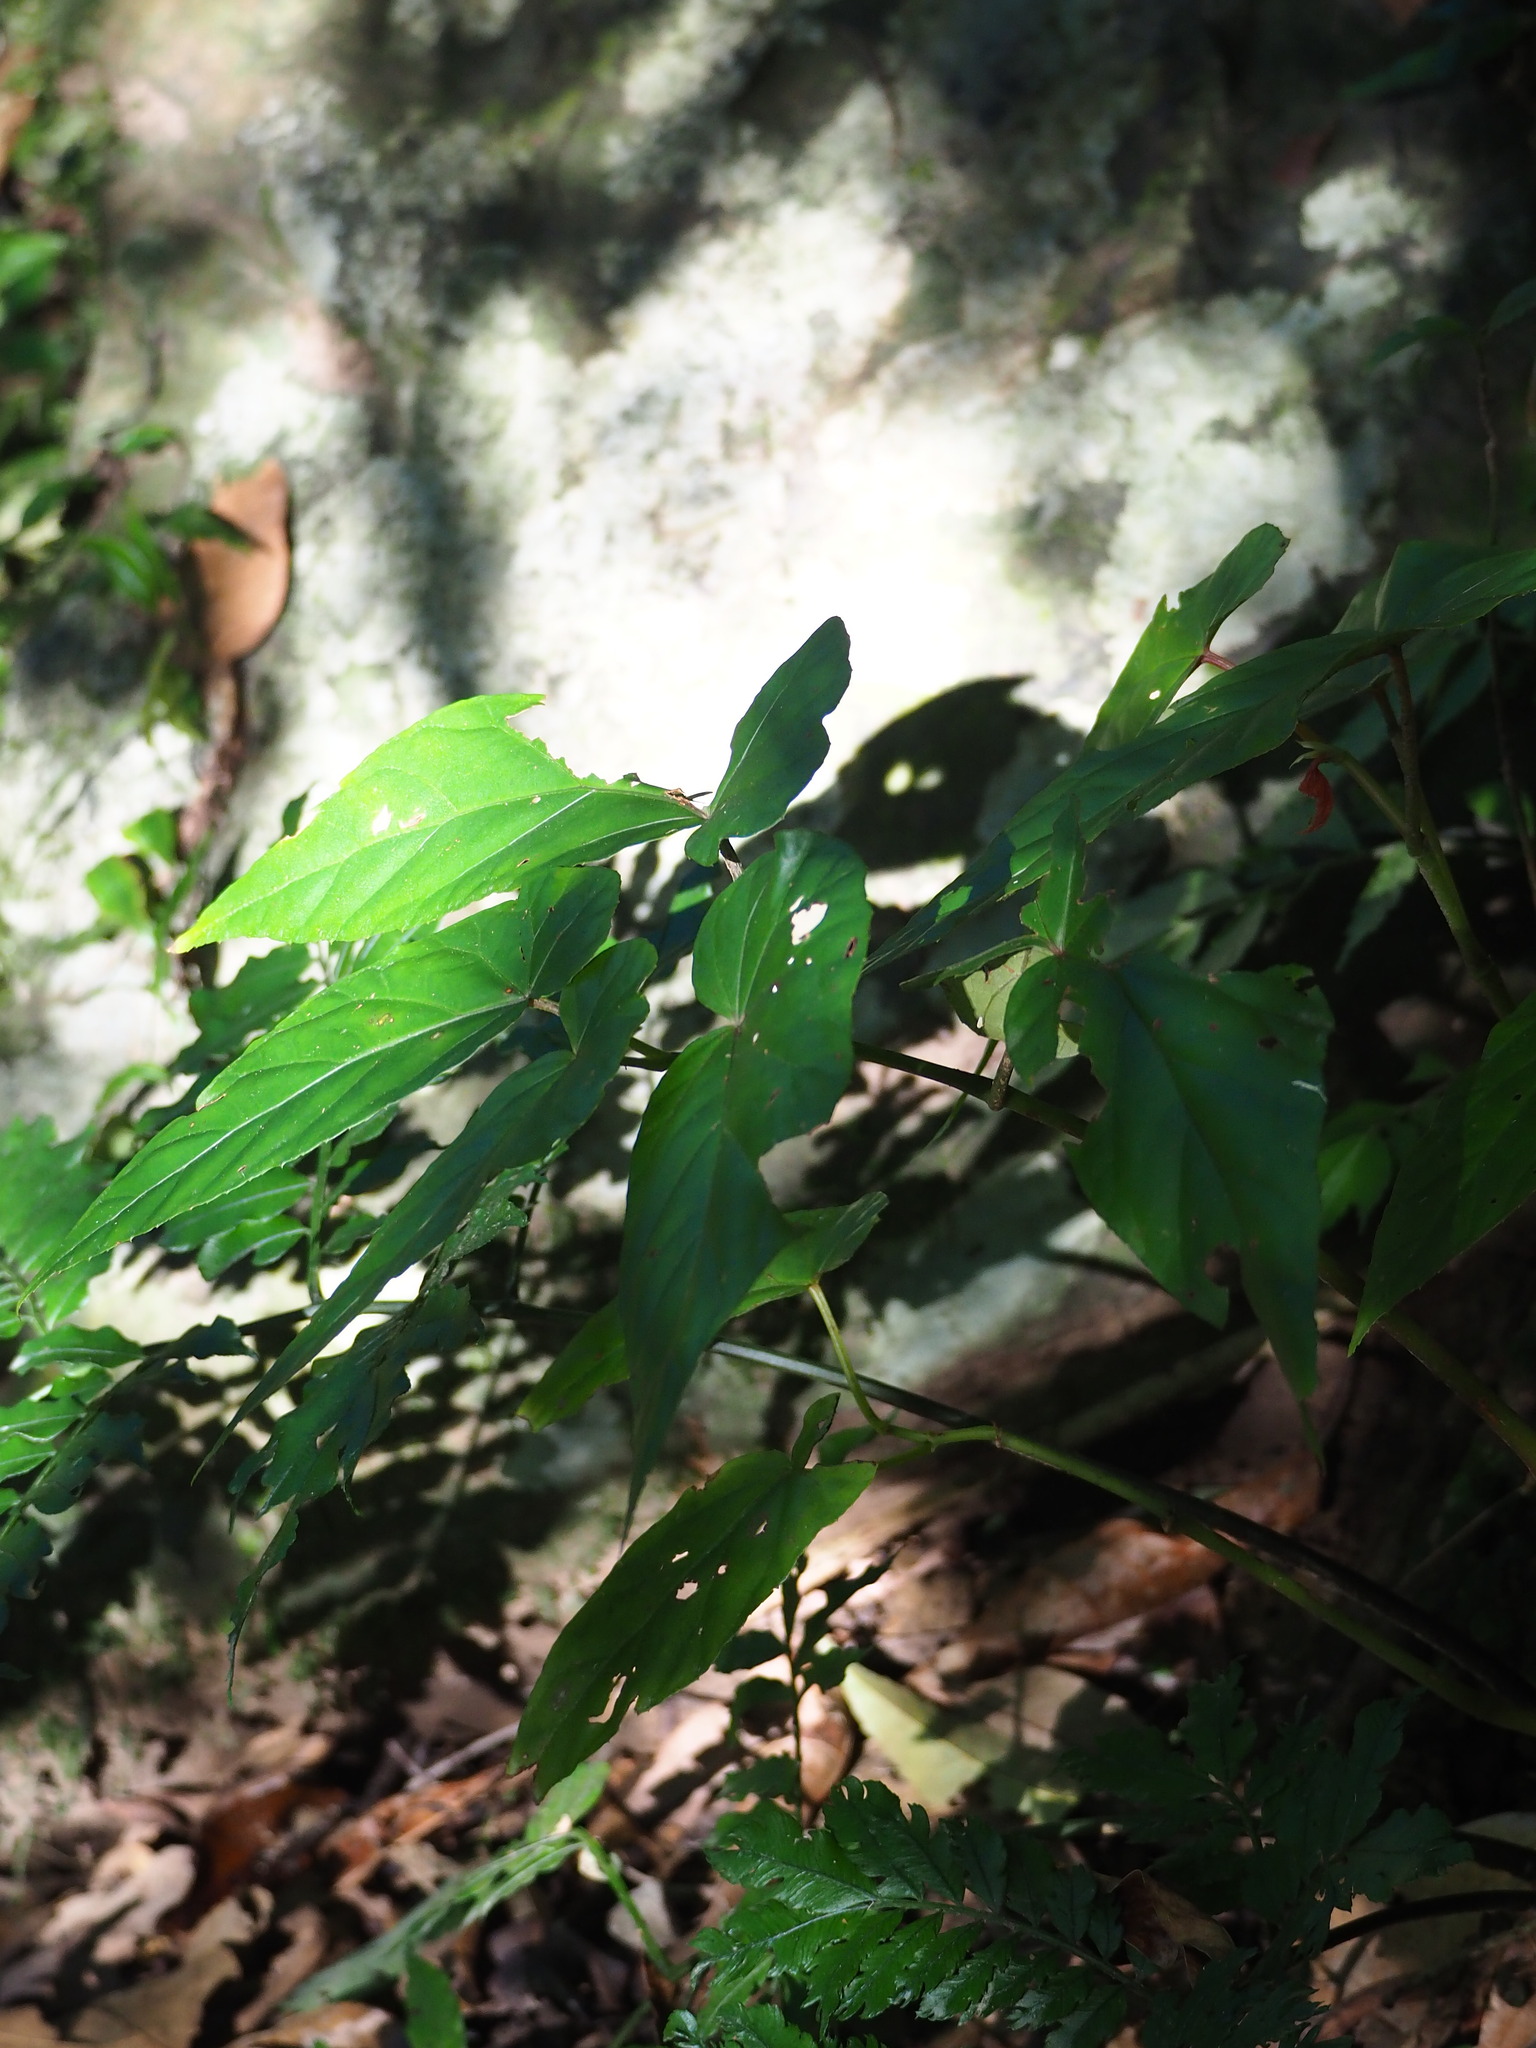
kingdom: Plantae
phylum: Tracheophyta
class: Magnoliopsida
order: Cucurbitales
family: Begoniaceae
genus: Begonia
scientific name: Begonia longifolia
